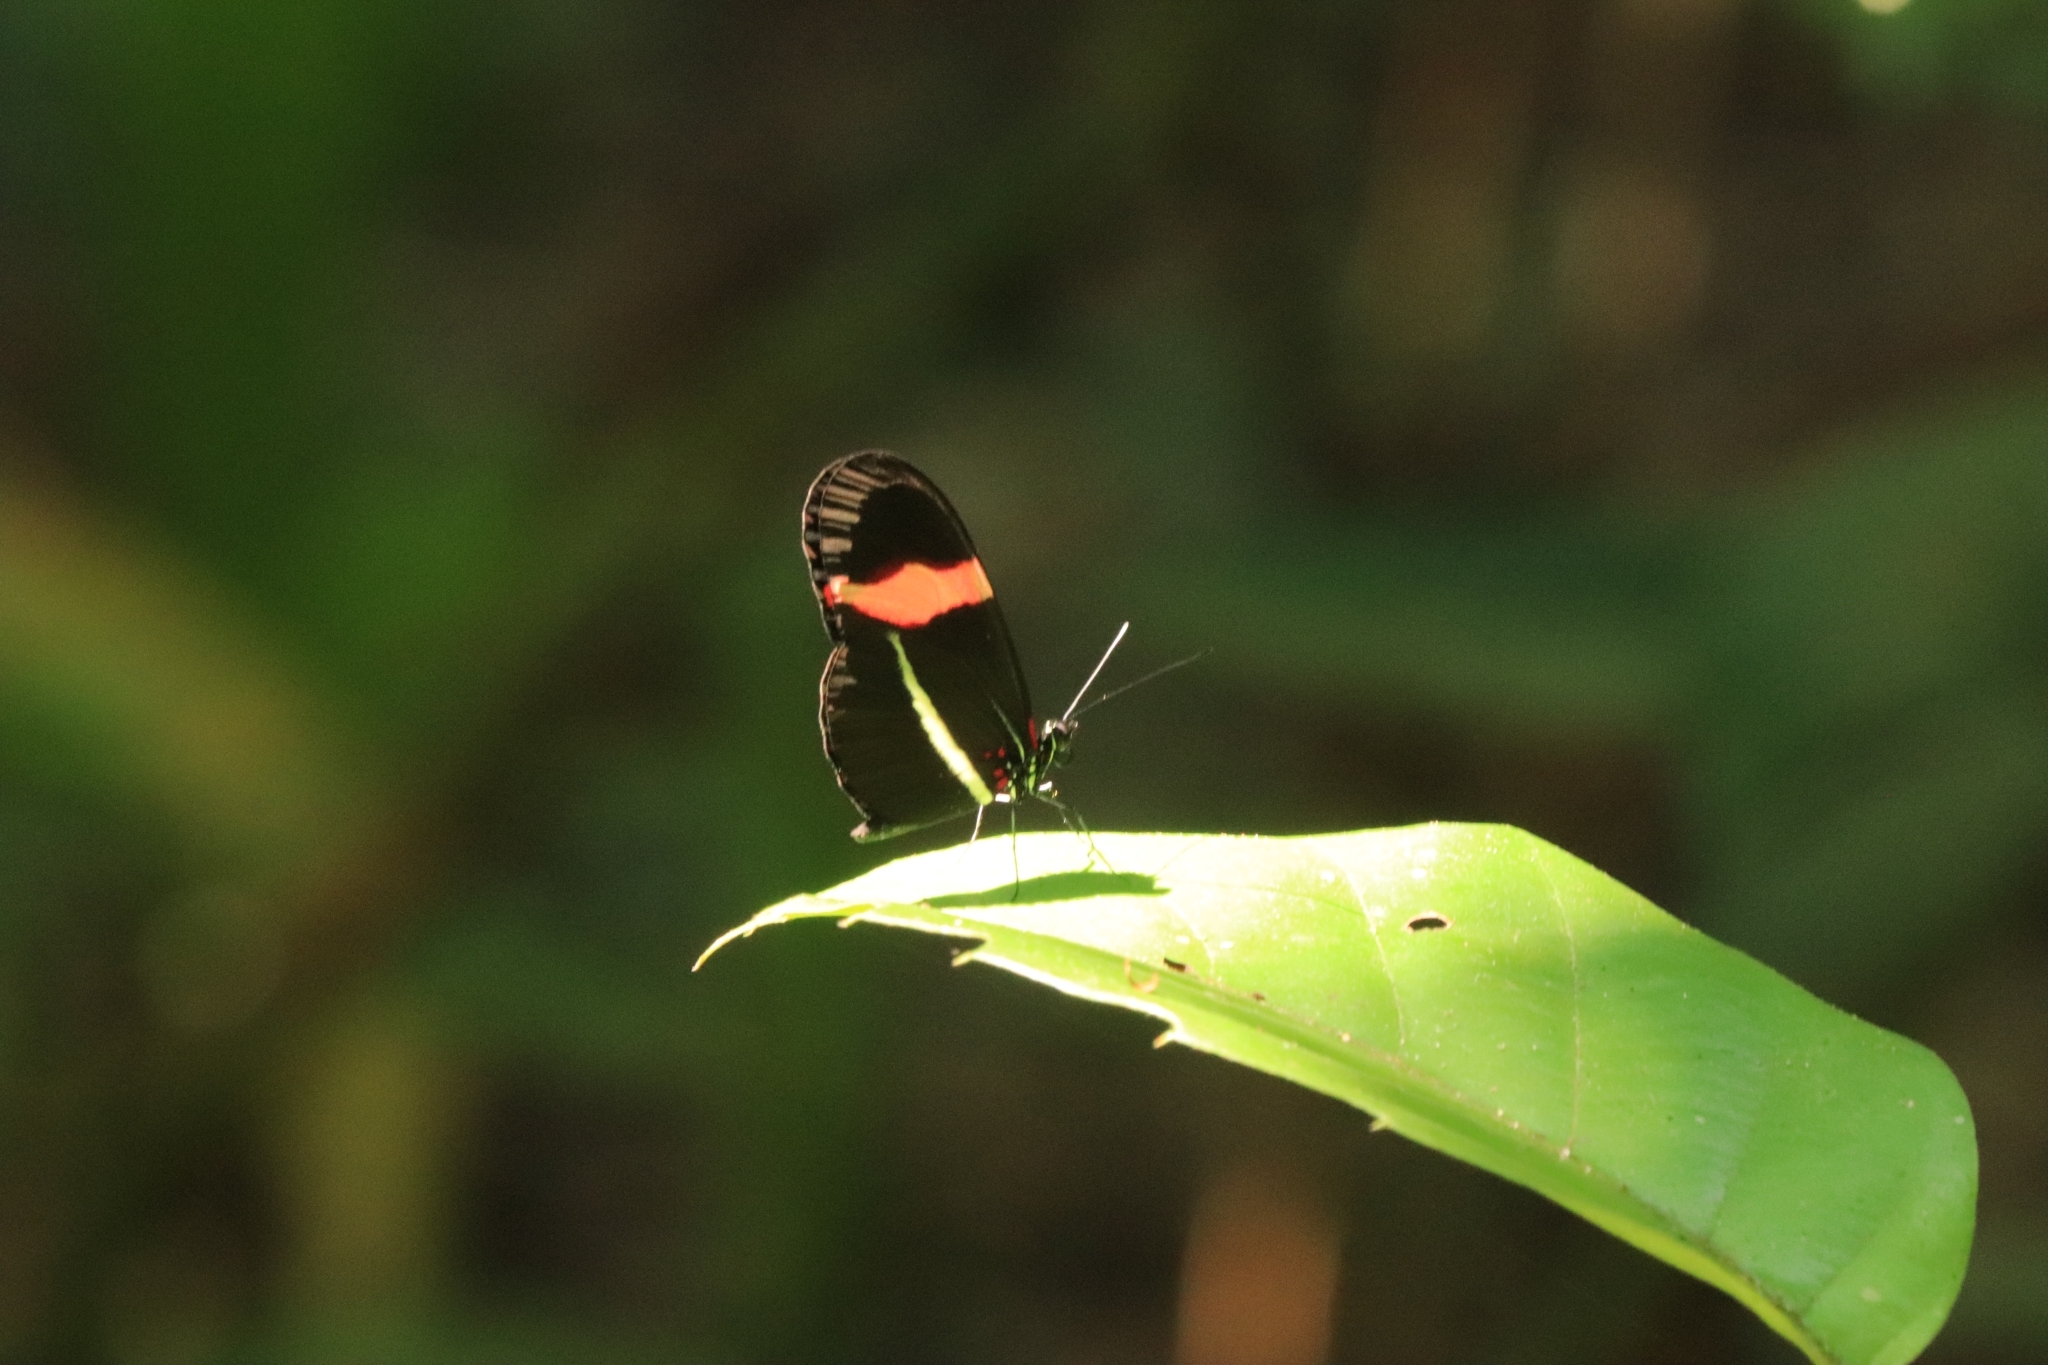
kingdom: Animalia
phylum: Arthropoda
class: Insecta
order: Lepidoptera
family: Nymphalidae
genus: Tirumala
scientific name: Tirumala petiverana
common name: Blue monarch
